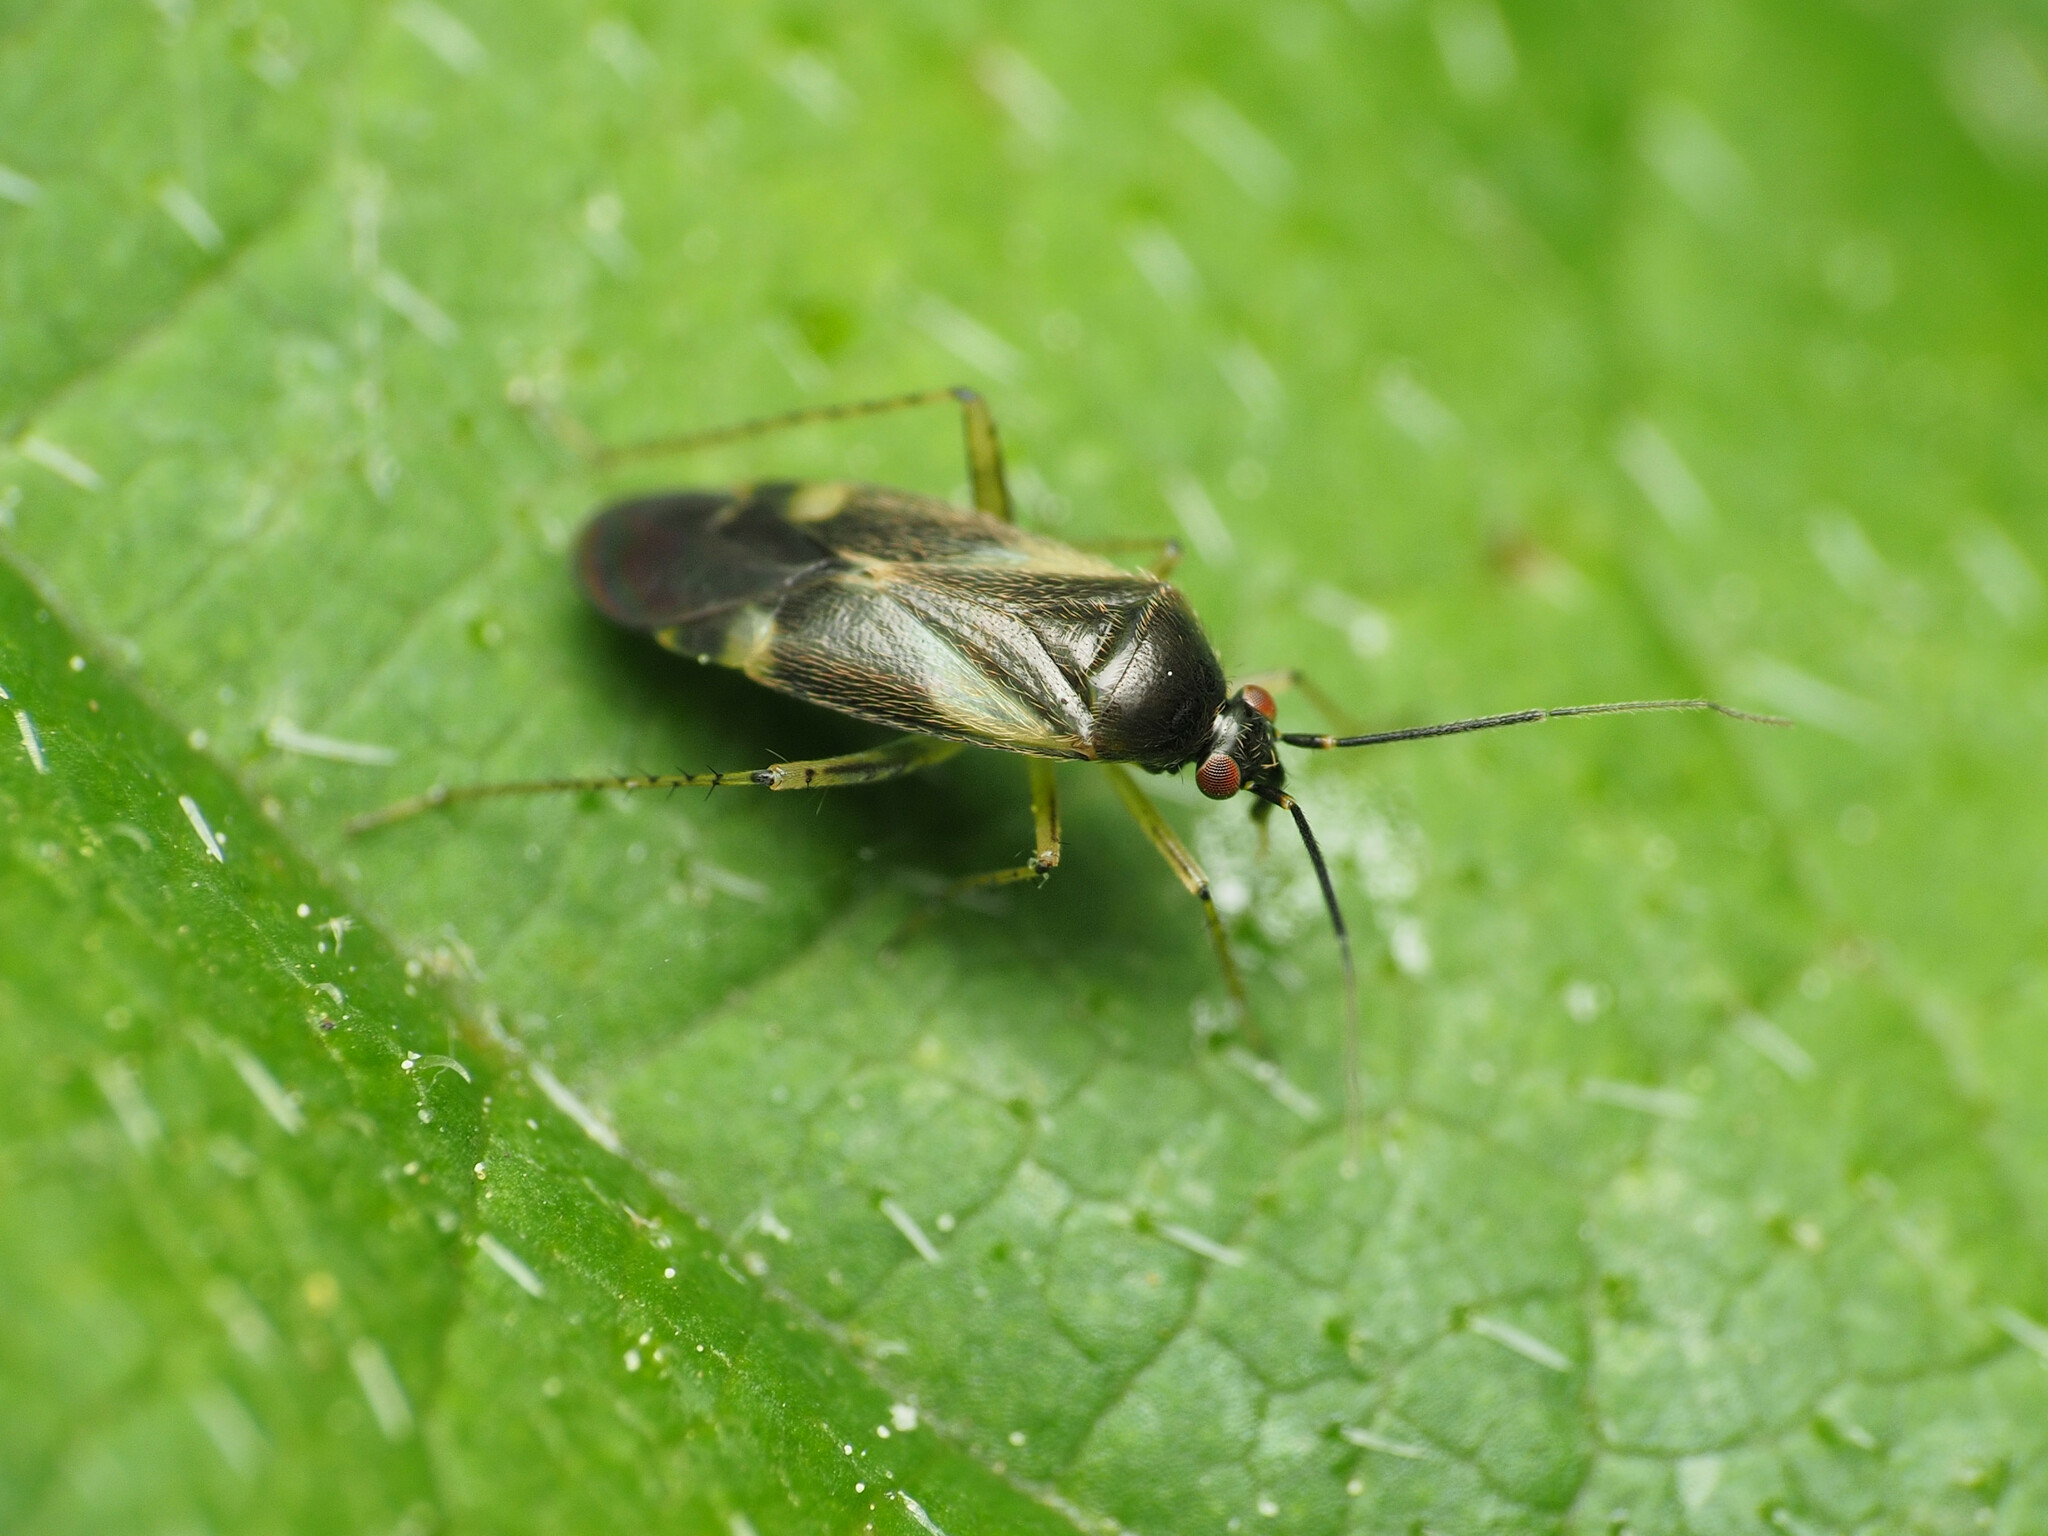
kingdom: Animalia
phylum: Arthropoda
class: Insecta
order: Hemiptera
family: Miridae
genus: Plagiognathus
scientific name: Plagiognathus obscurus
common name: Obscure plant bug
